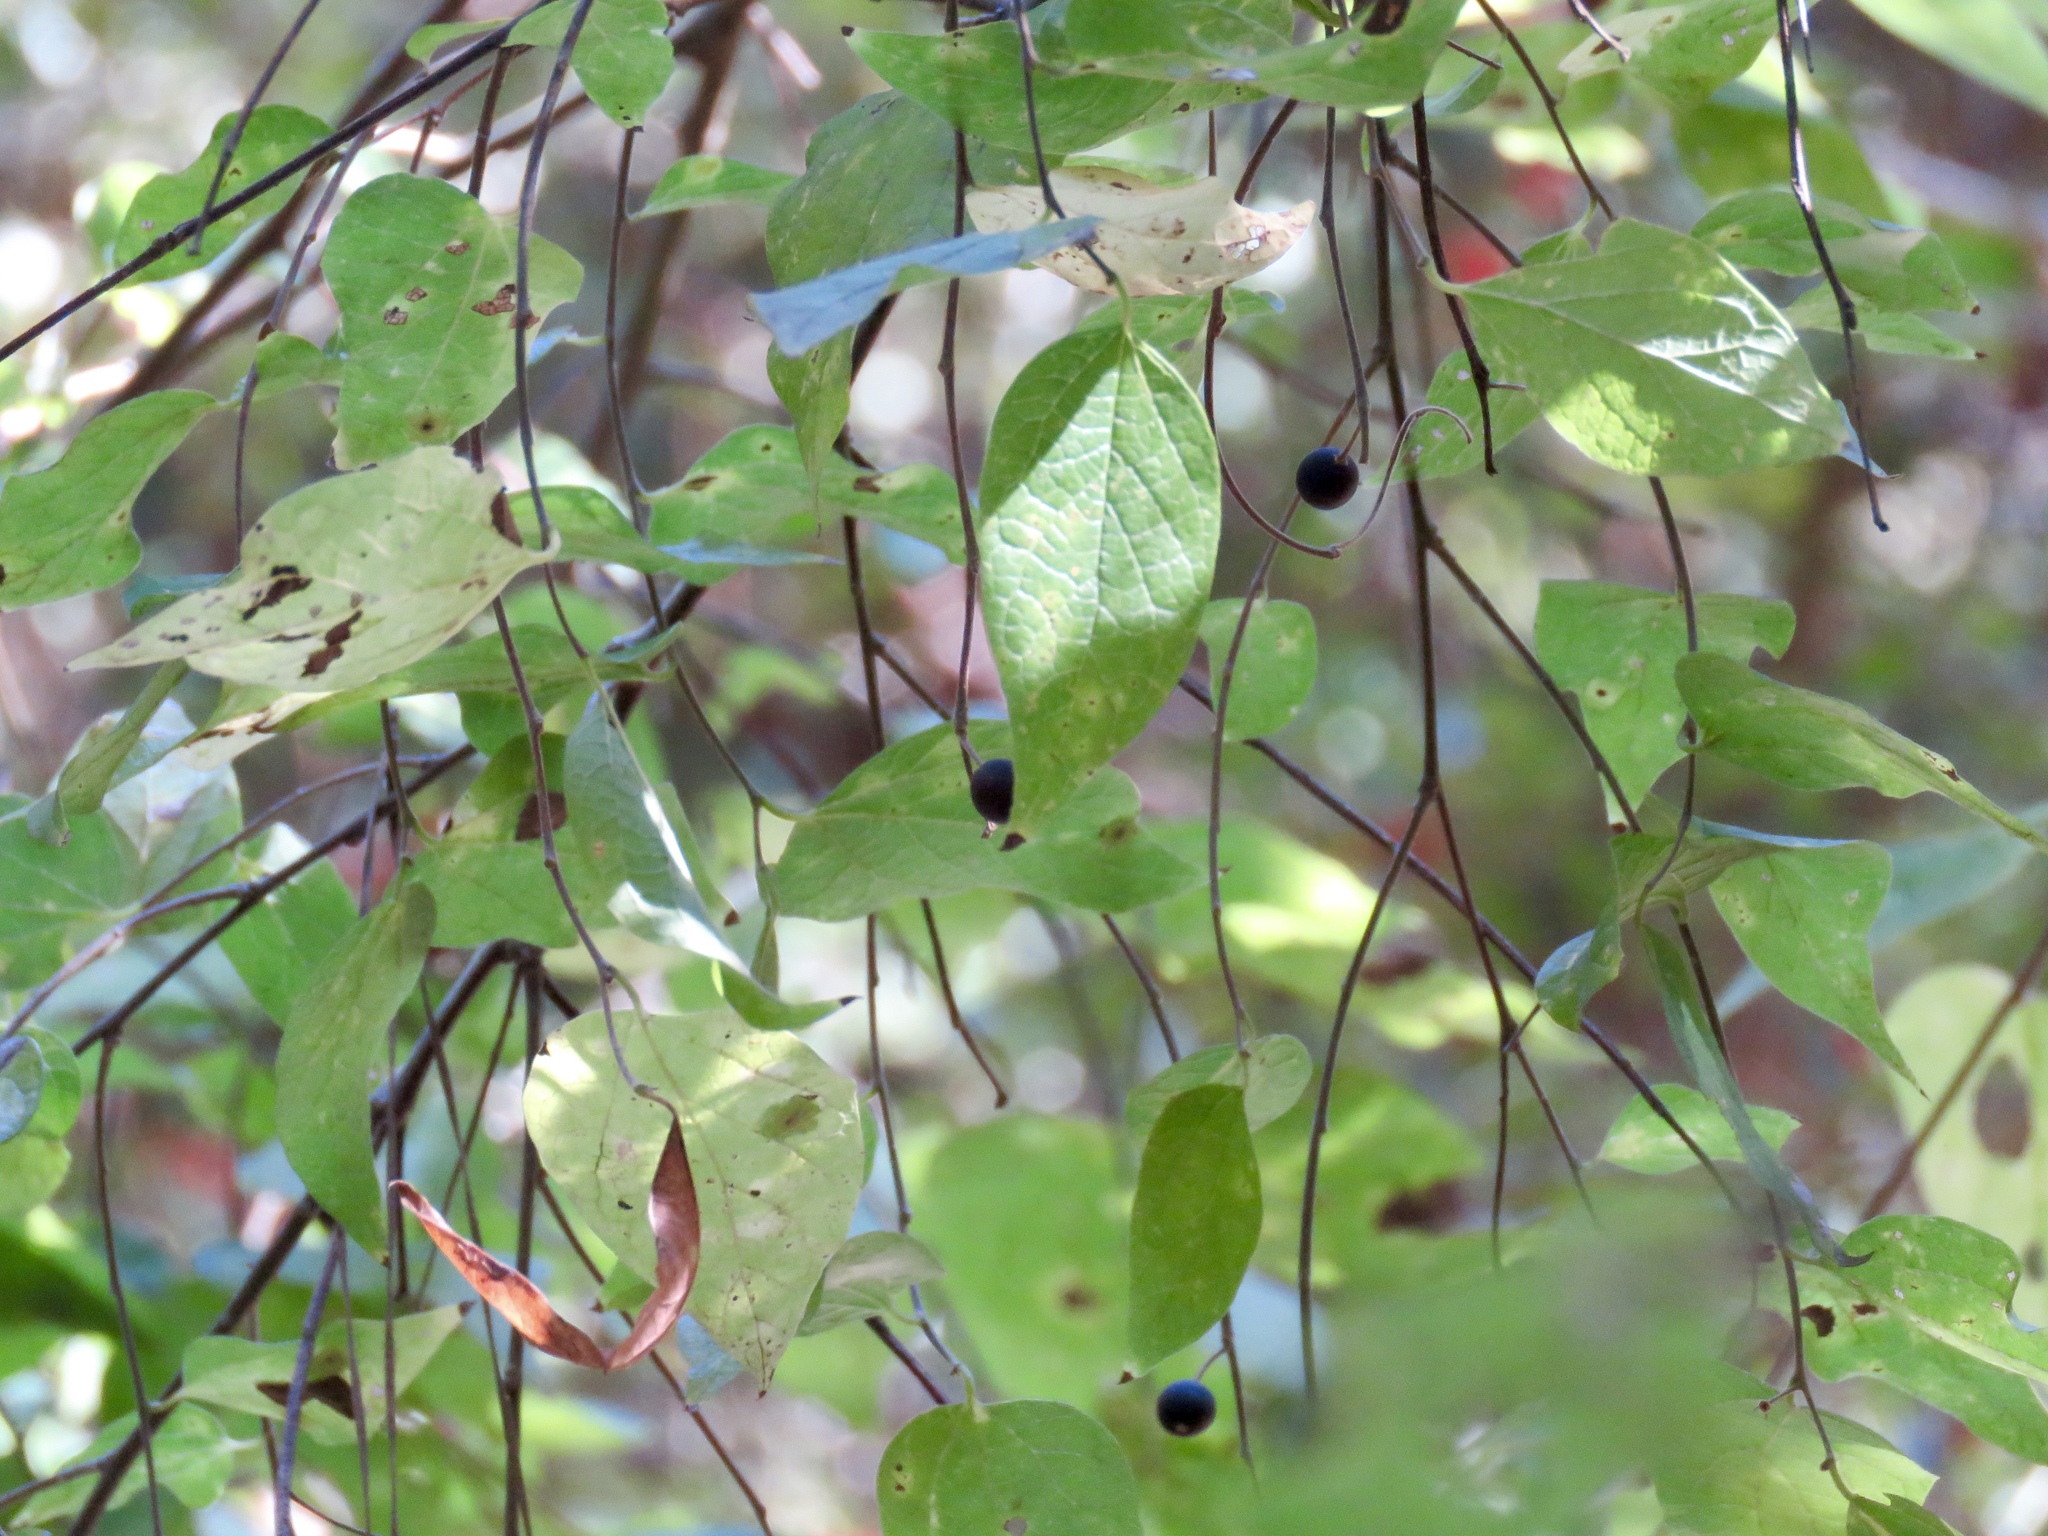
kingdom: Plantae
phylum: Tracheophyta
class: Magnoliopsida
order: Rosales
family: Cannabaceae
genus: Celtis
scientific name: Celtis laevigata
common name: Sugarberry
